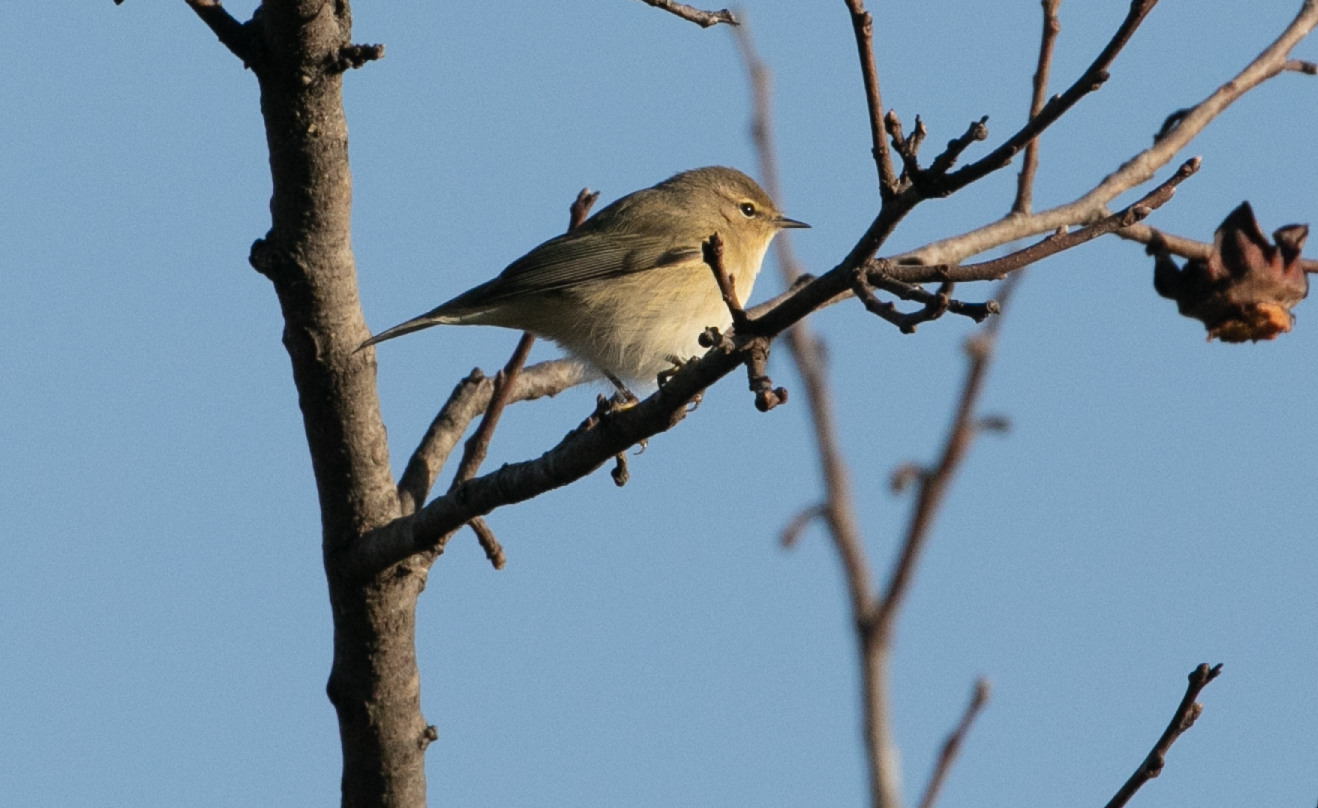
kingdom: Animalia
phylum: Chordata
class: Aves
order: Passeriformes
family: Phylloscopidae
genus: Phylloscopus
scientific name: Phylloscopus collybita
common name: Common chiffchaff
